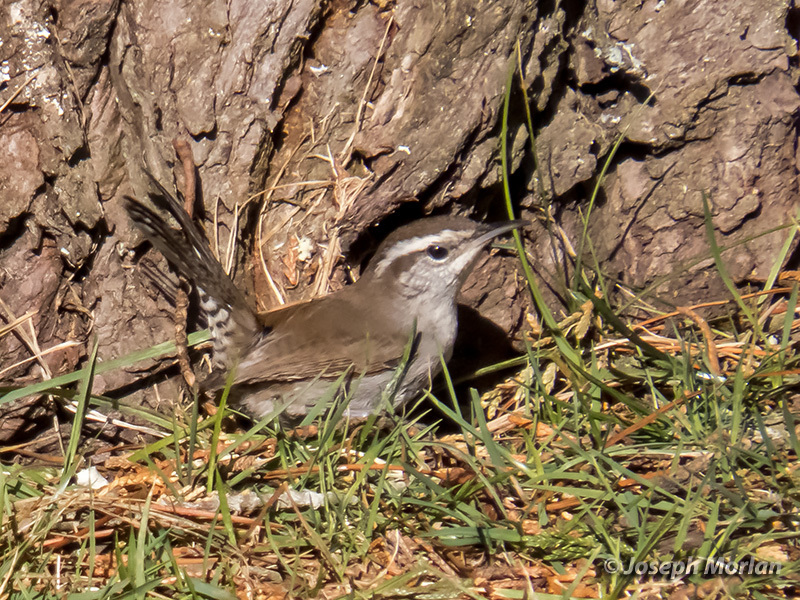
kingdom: Animalia
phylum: Chordata
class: Aves
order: Passeriformes
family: Troglodytidae
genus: Thryomanes
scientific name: Thryomanes bewickii
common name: Bewick's wren
